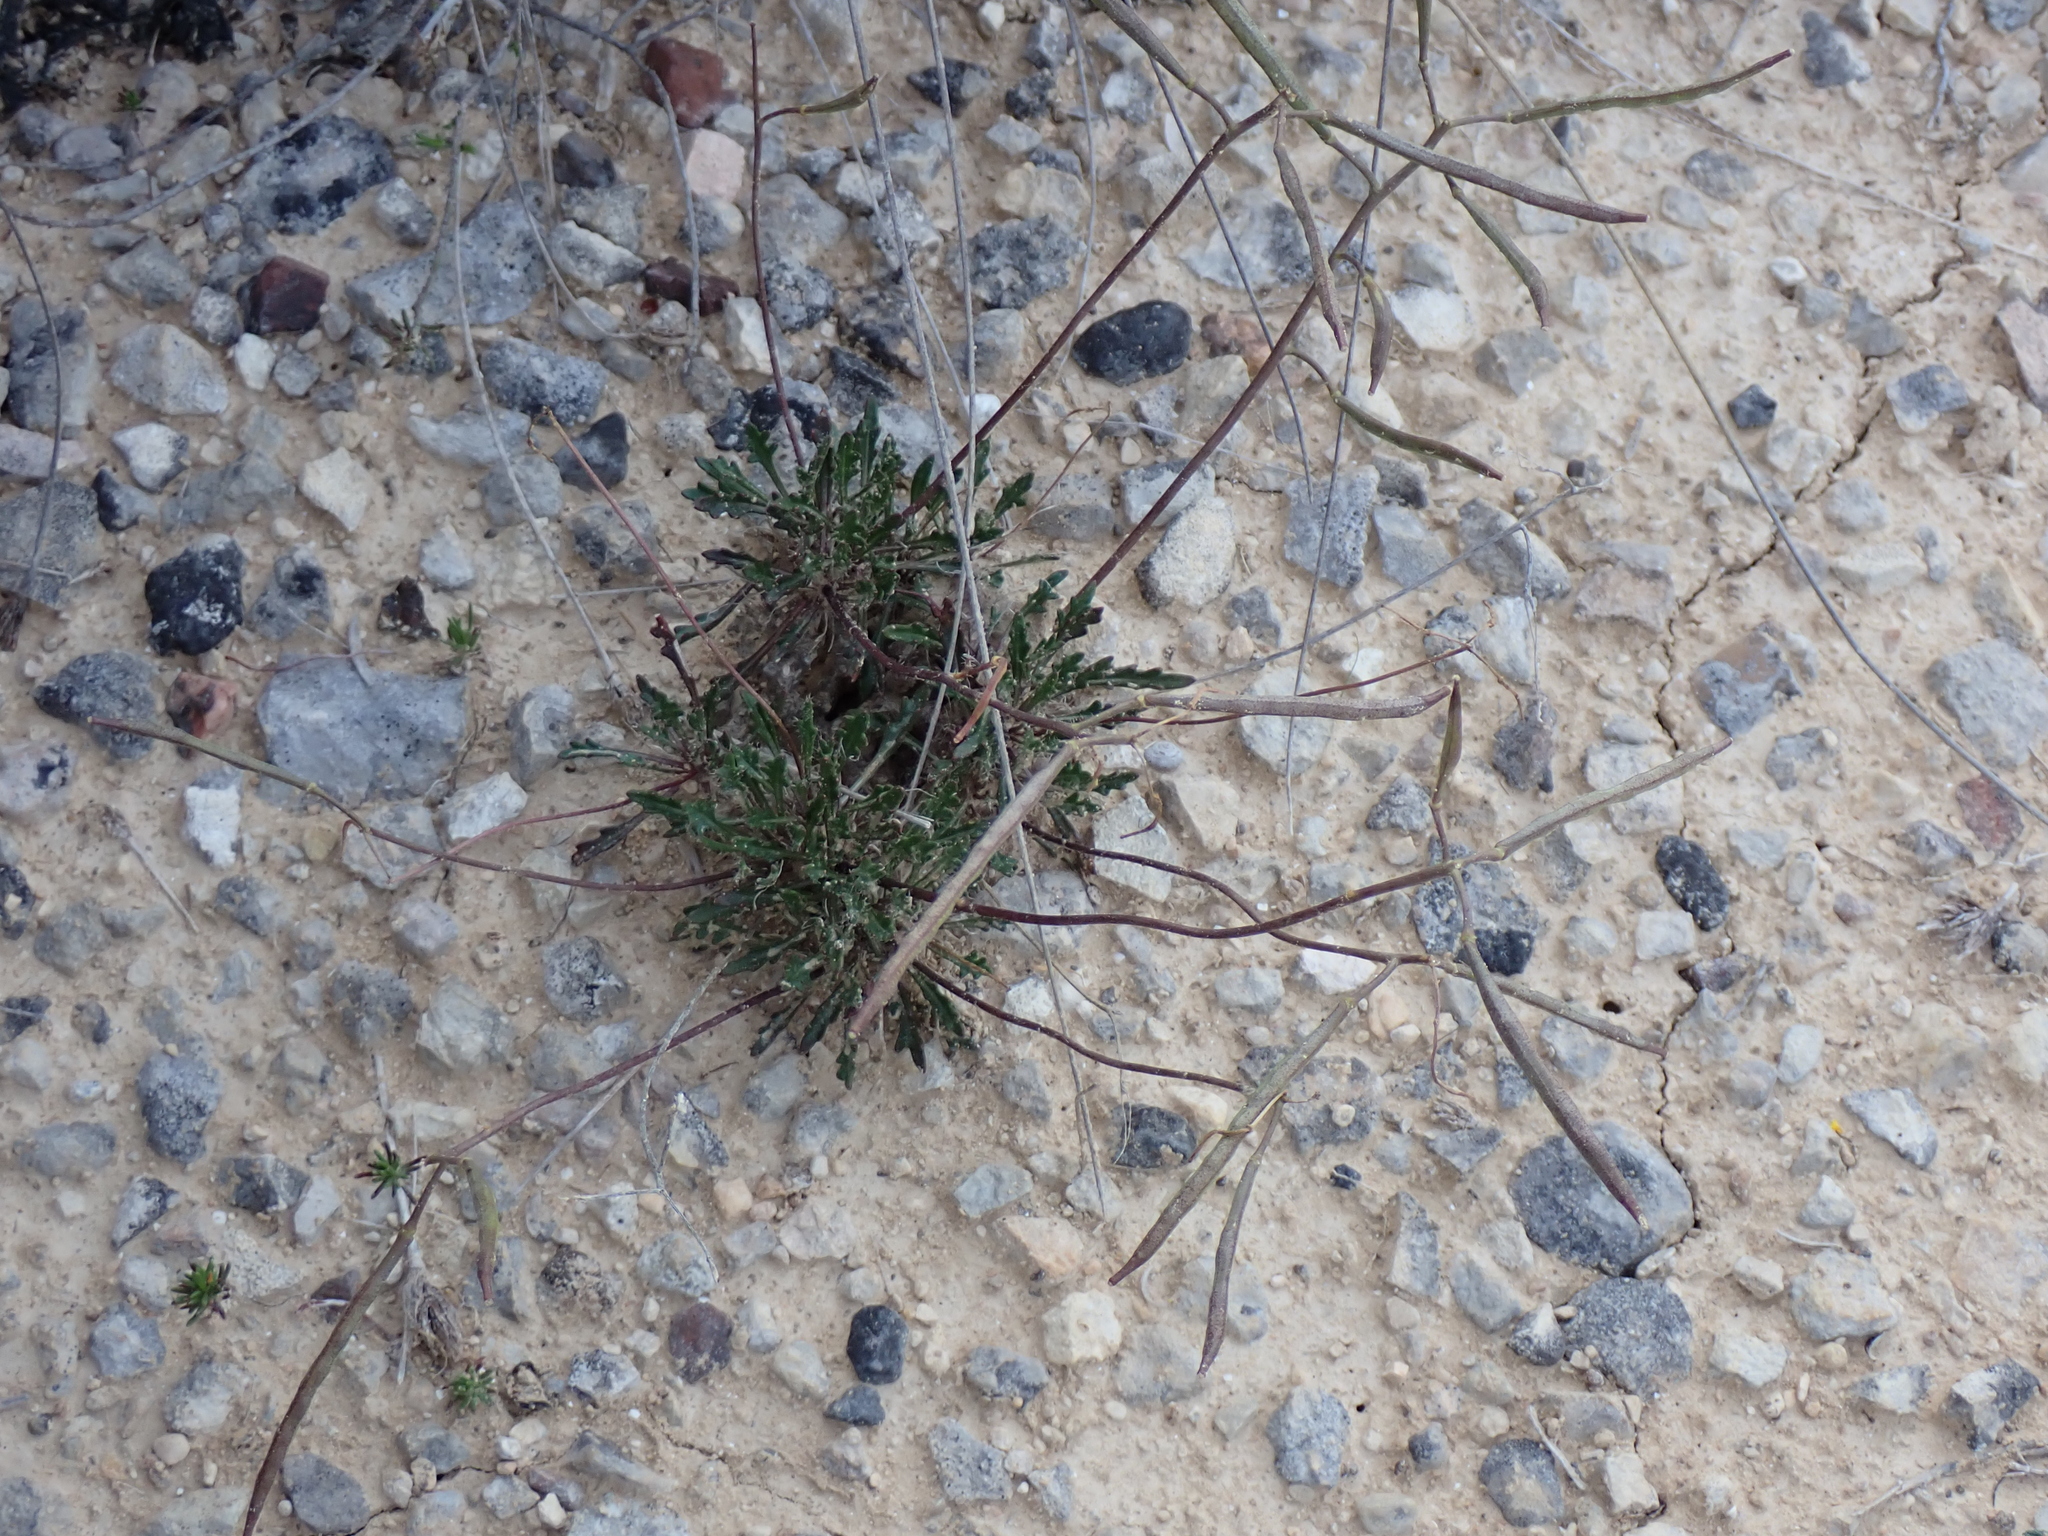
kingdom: Plantae
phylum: Tracheophyta
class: Magnoliopsida
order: Brassicales
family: Brassicaceae
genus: Brassica
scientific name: Brassica repanda
